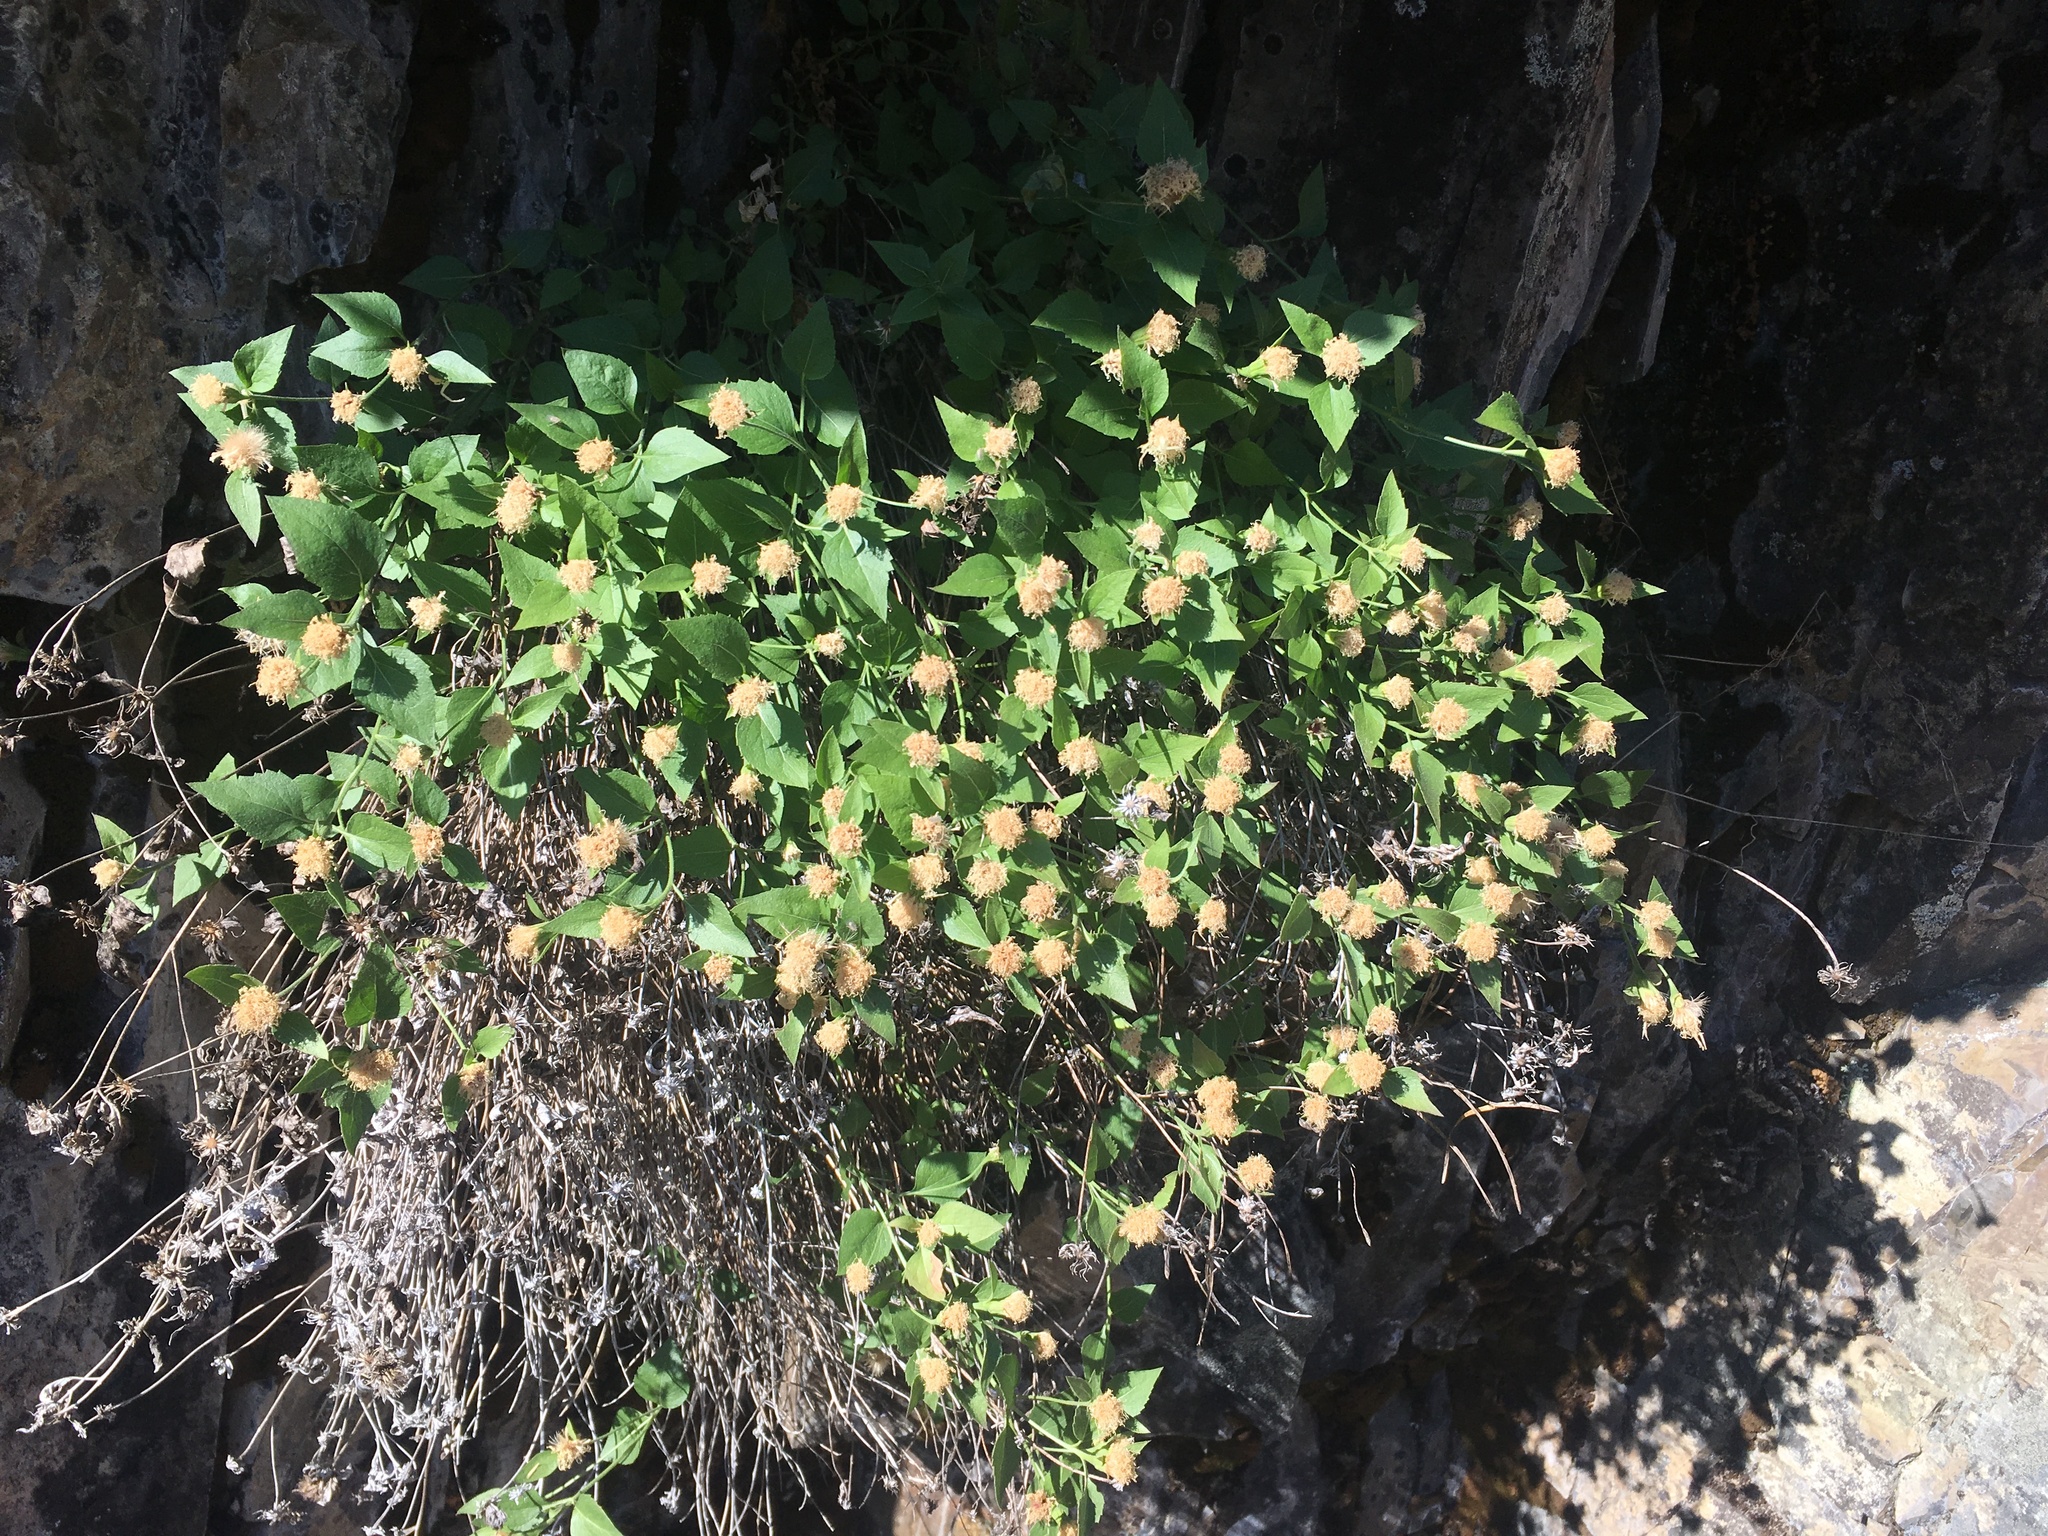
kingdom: Plantae
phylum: Tracheophyta
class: Magnoliopsida
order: Asterales
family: Asteraceae
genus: Ageratina
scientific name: Ageratina shastensis
